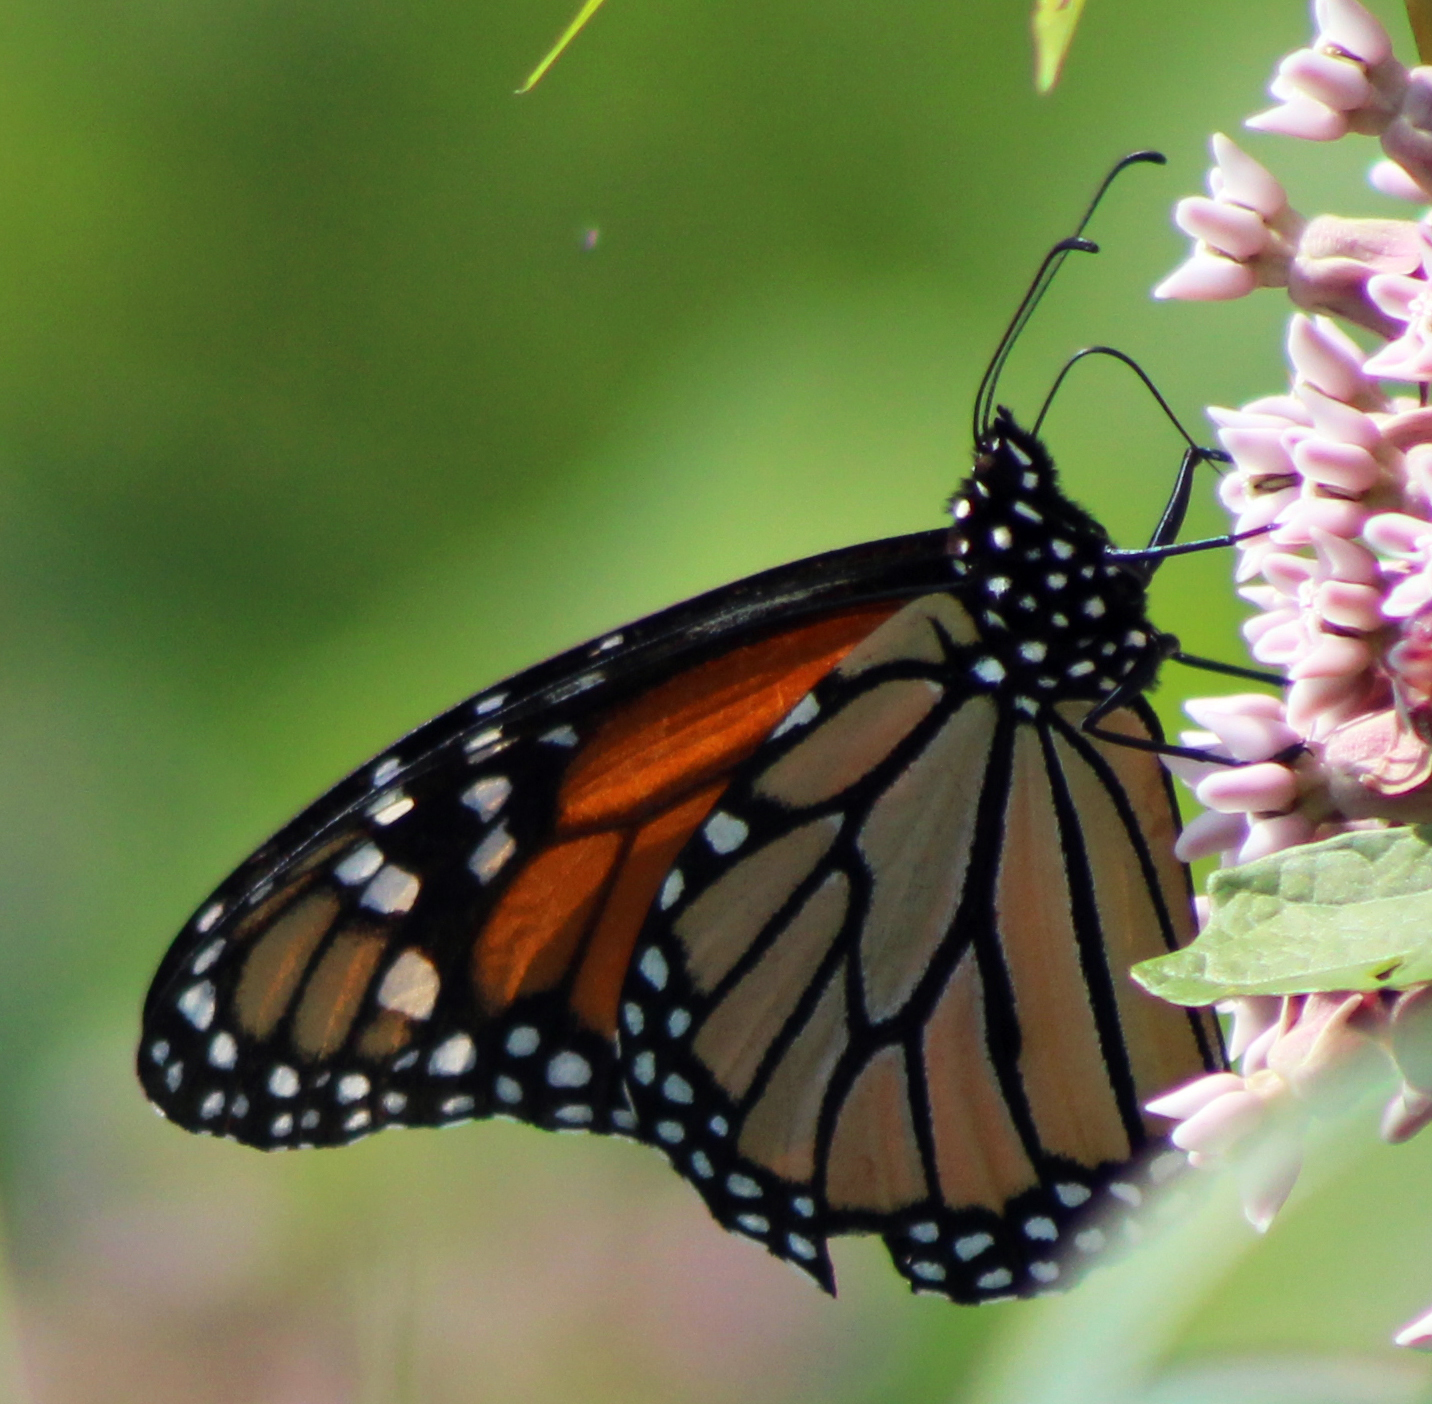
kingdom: Animalia
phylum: Arthropoda
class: Insecta
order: Lepidoptera
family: Nymphalidae
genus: Danaus
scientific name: Danaus plexippus
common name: Monarch
